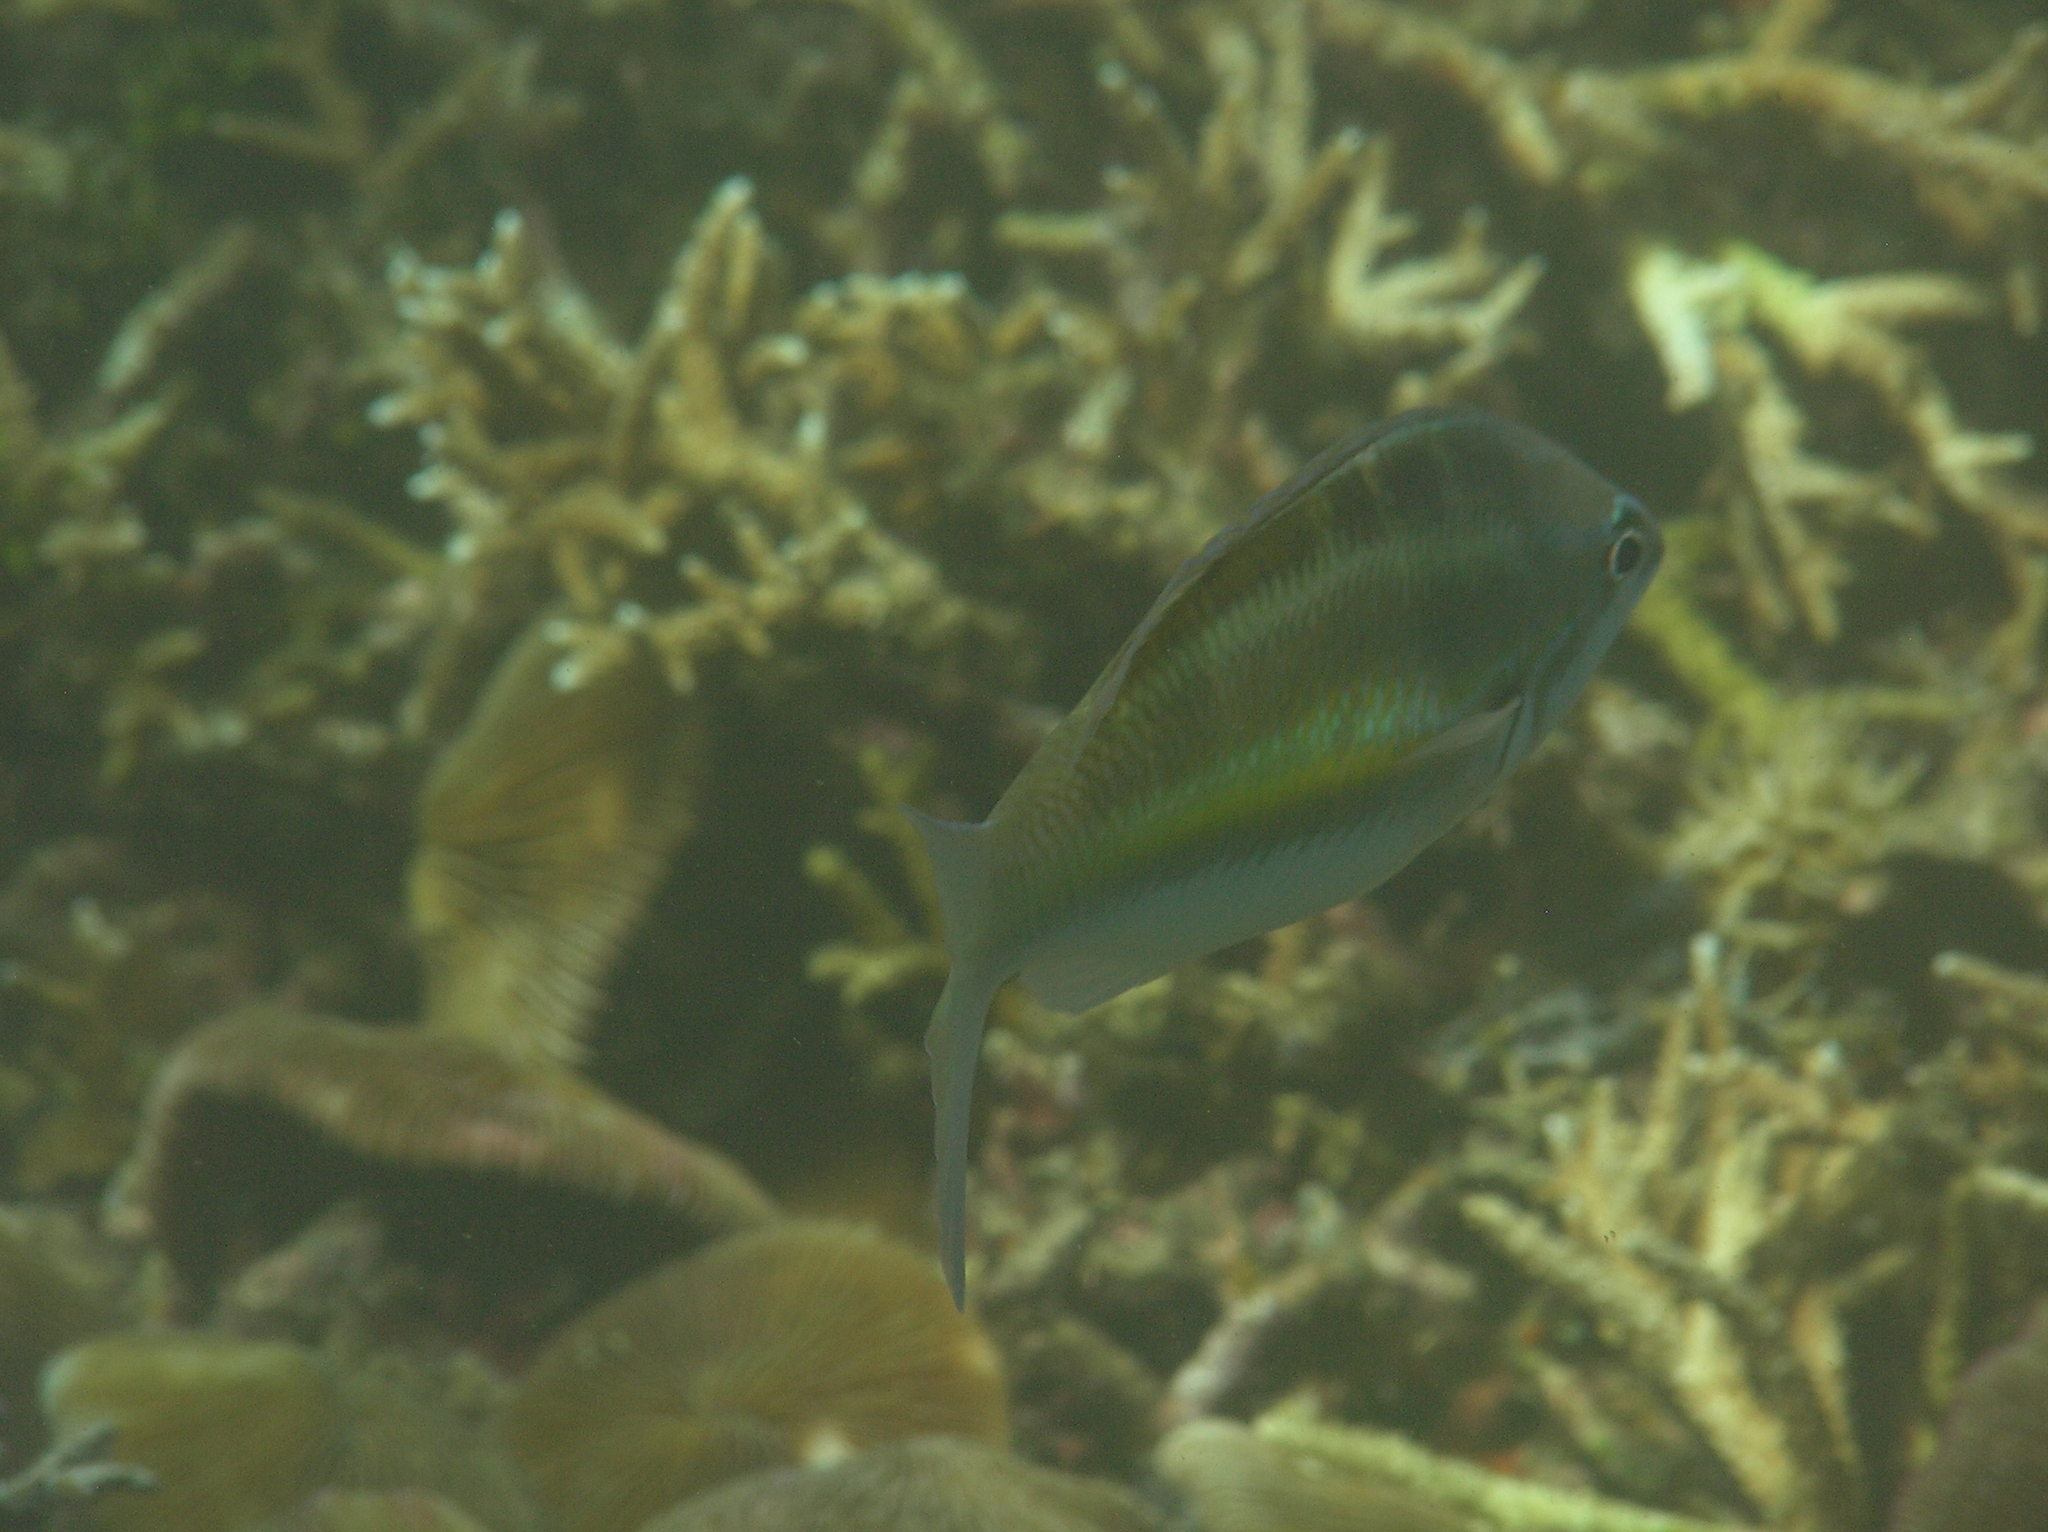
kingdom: Animalia
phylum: Chordata
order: Perciformes
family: Nemipteridae
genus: Pentapodus
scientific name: Pentapodus trivittatus
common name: Three-striped whiptail
